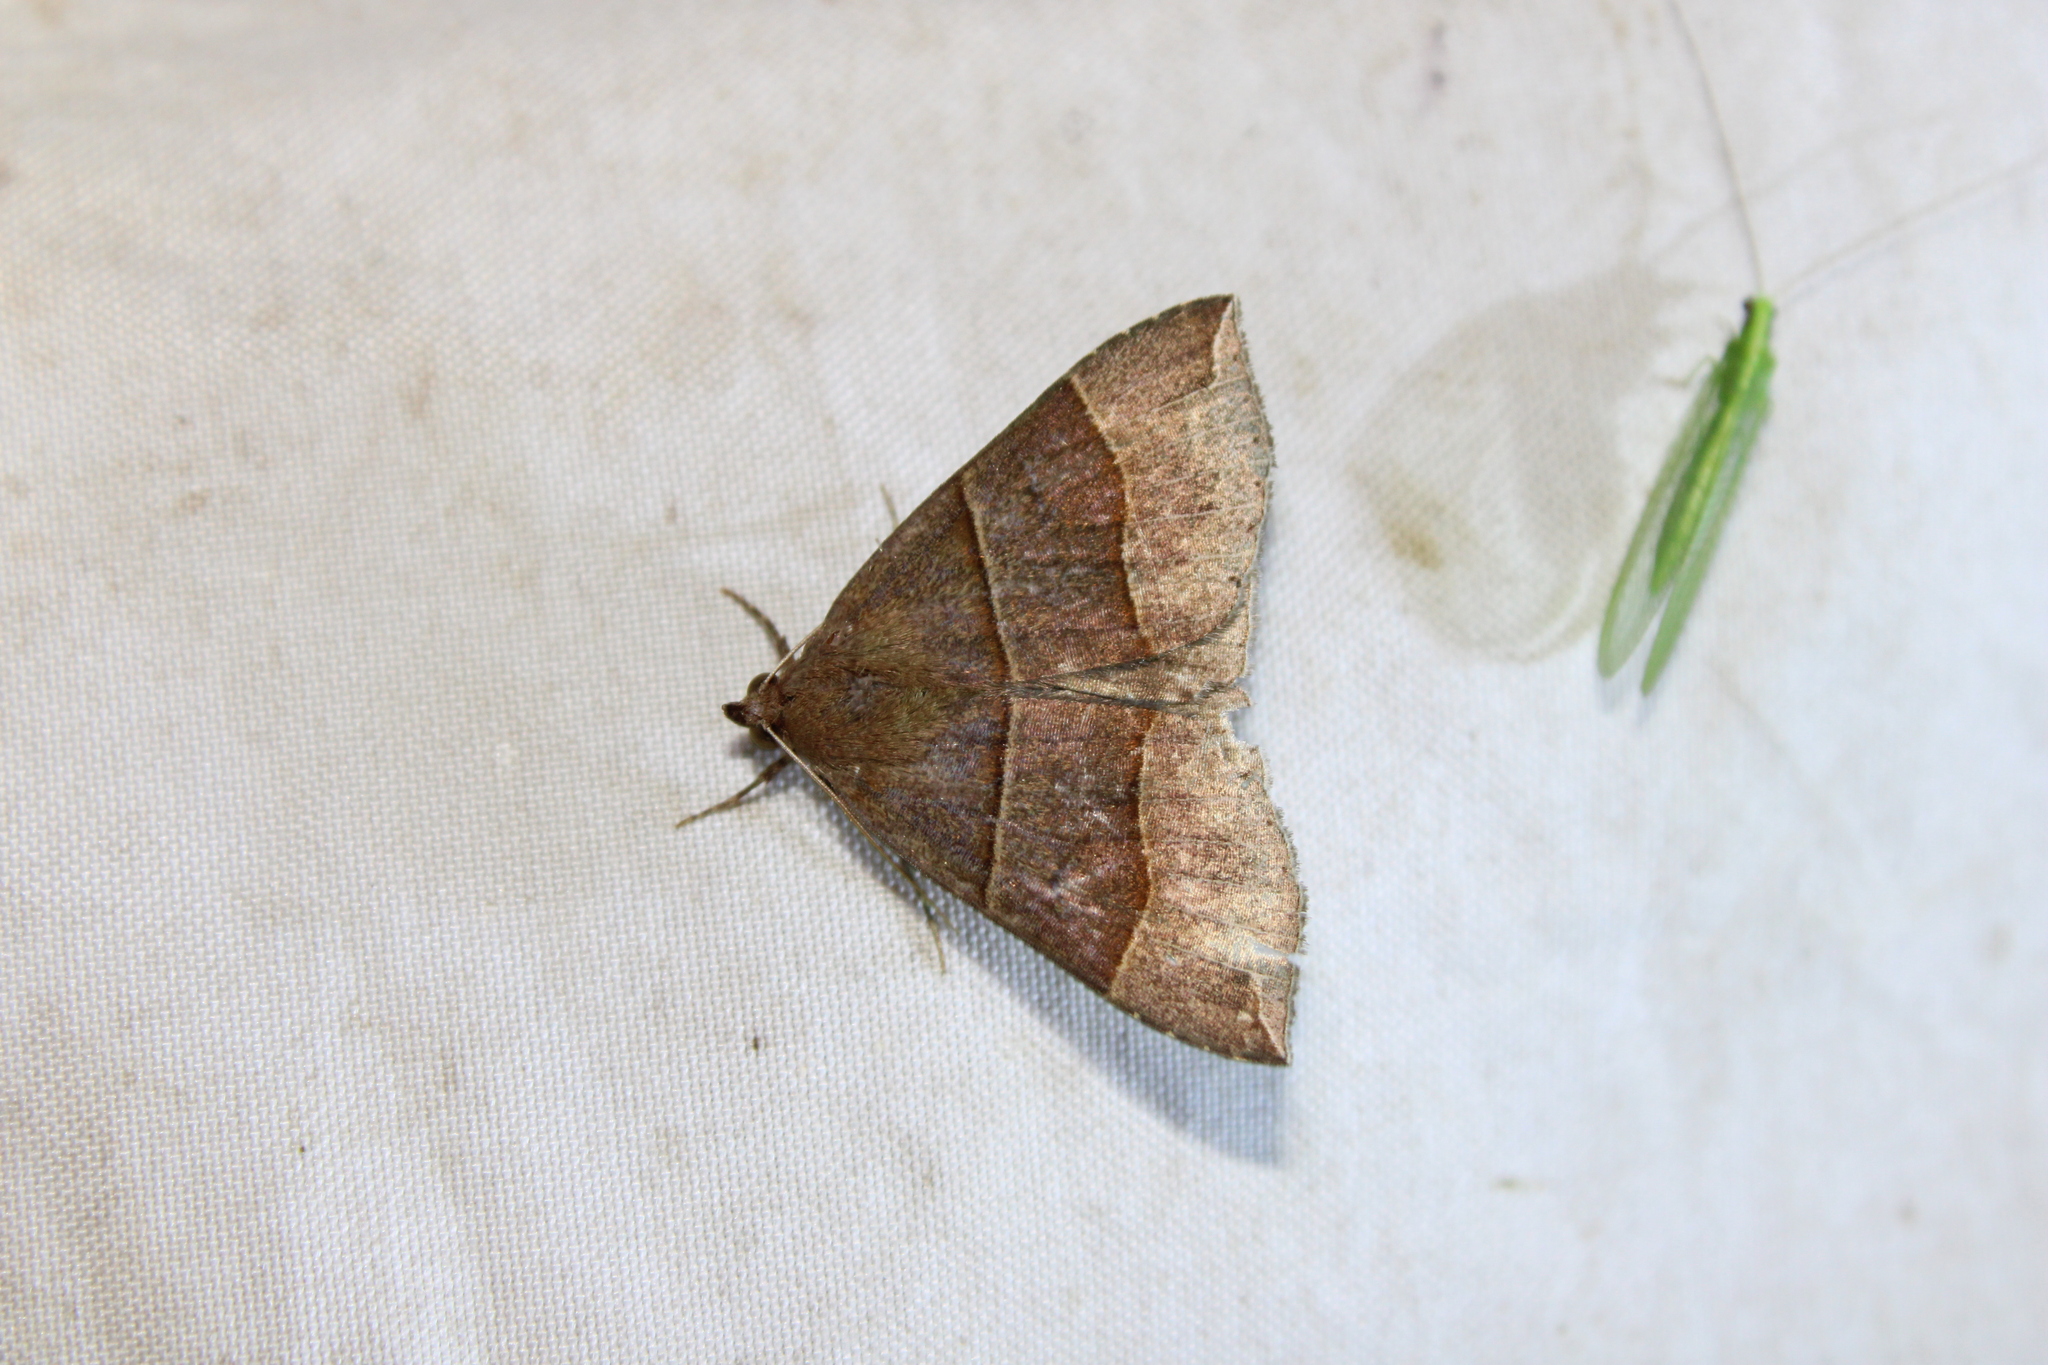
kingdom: Animalia
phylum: Arthropoda
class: Insecta
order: Lepidoptera
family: Erebidae
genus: Parallelia
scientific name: Parallelia bistriaris
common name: Maple looper moth
